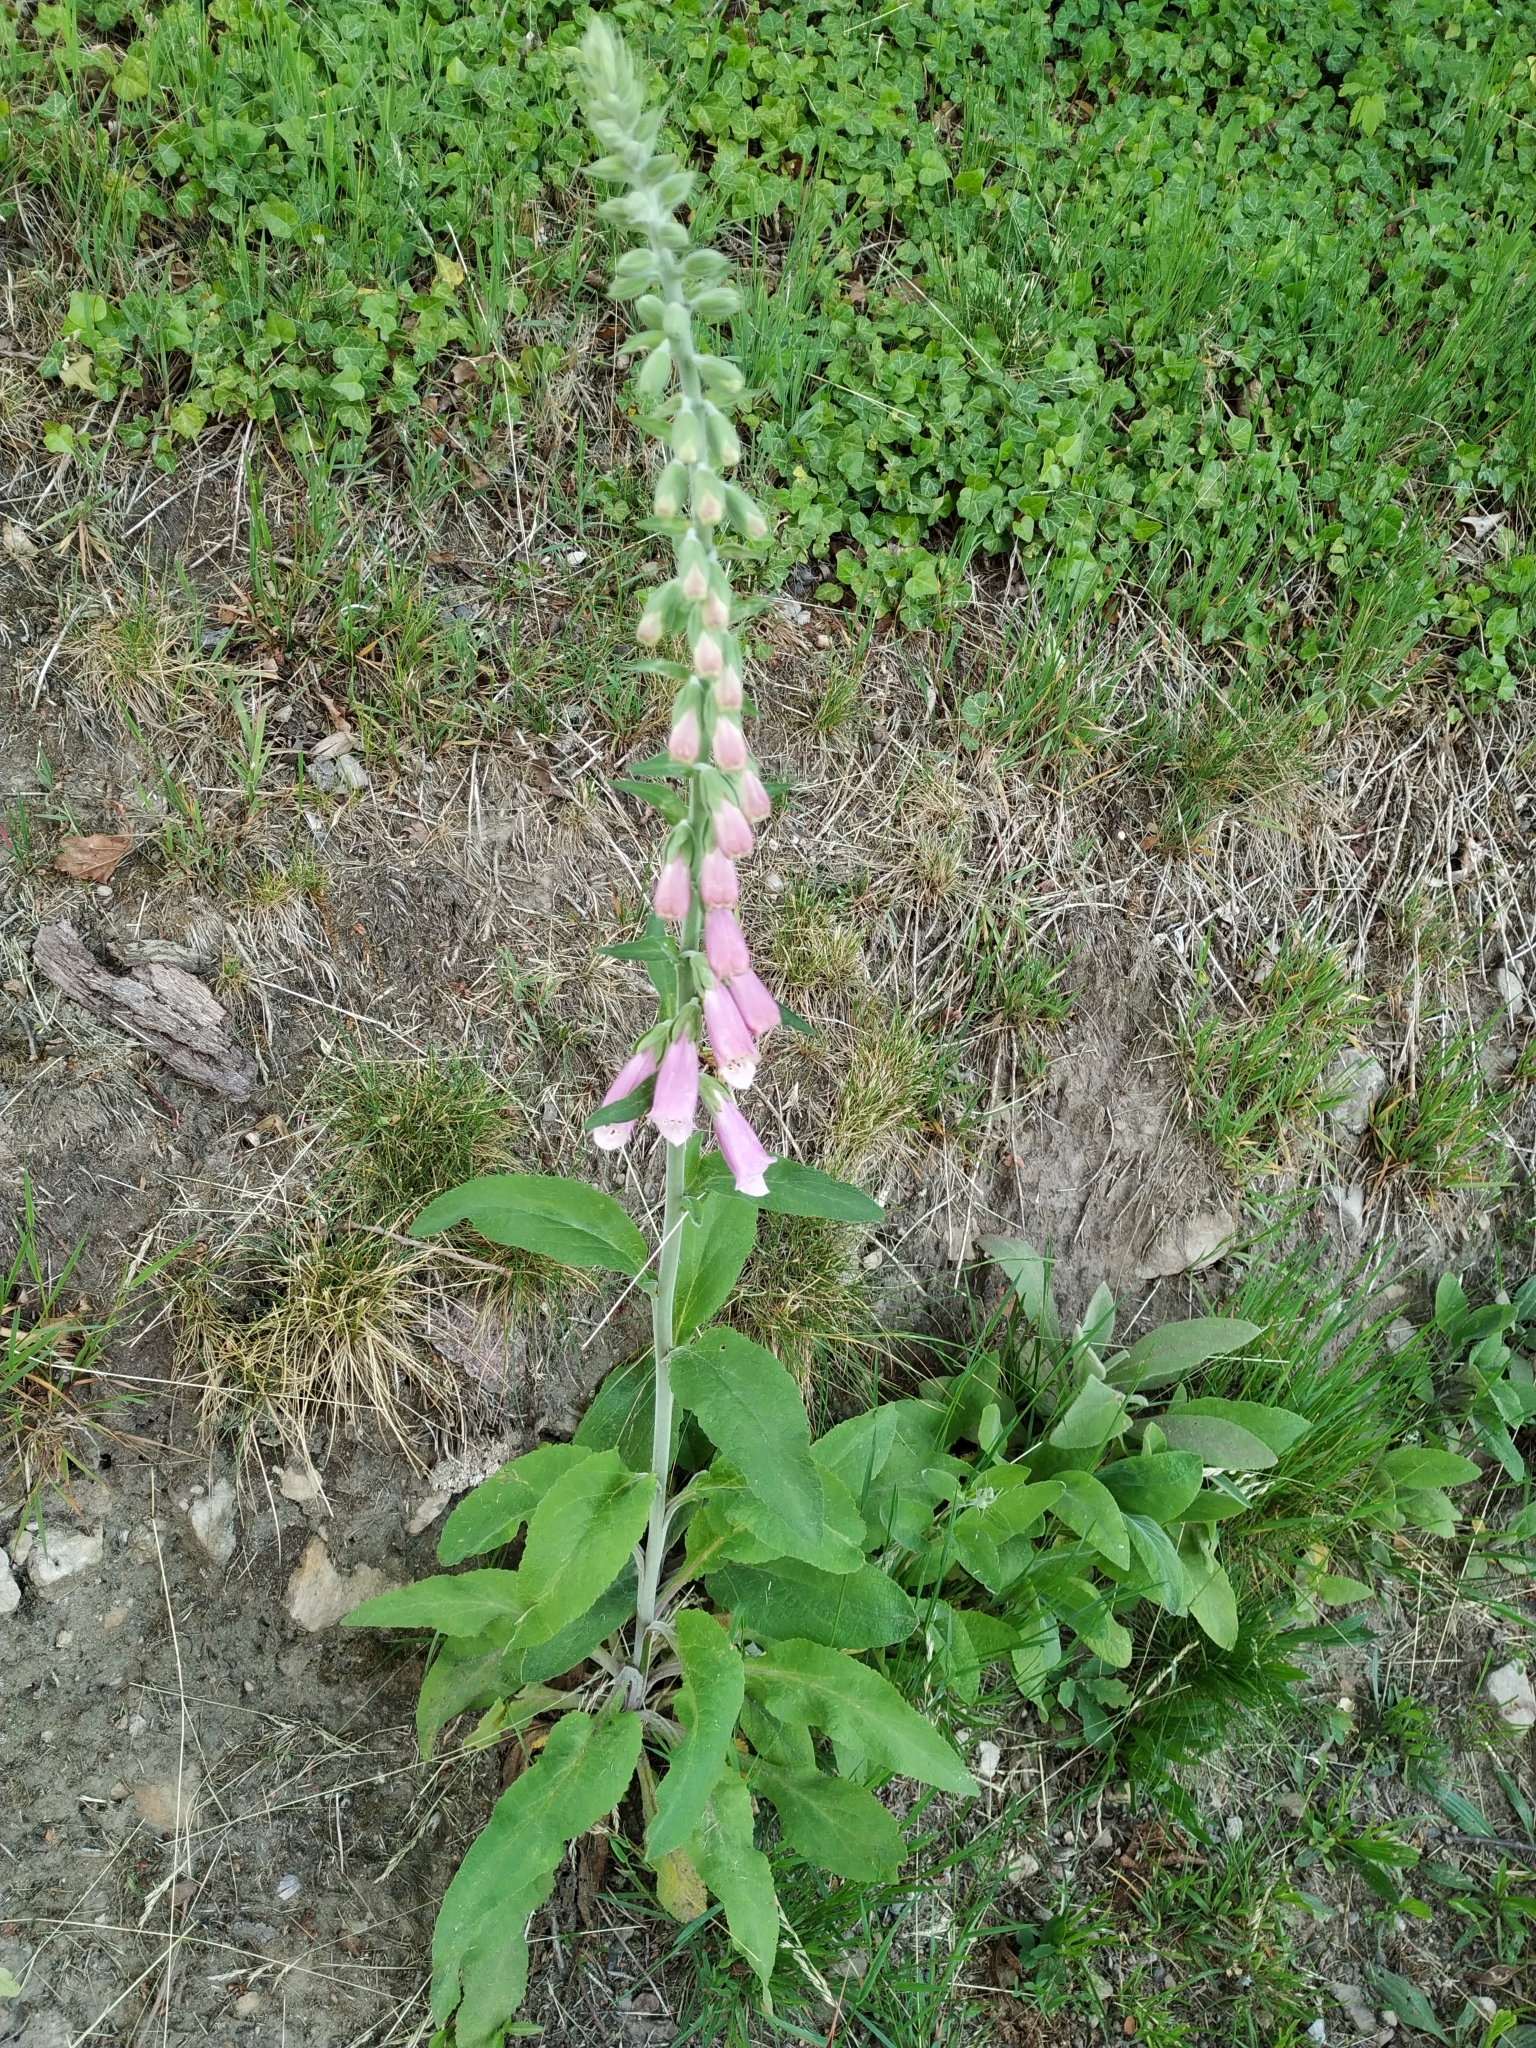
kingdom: Plantae
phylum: Tracheophyta
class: Magnoliopsida
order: Lamiales
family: Plantaginaceae
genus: Digitalis
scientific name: Digitalis purpurea
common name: Foxglove
